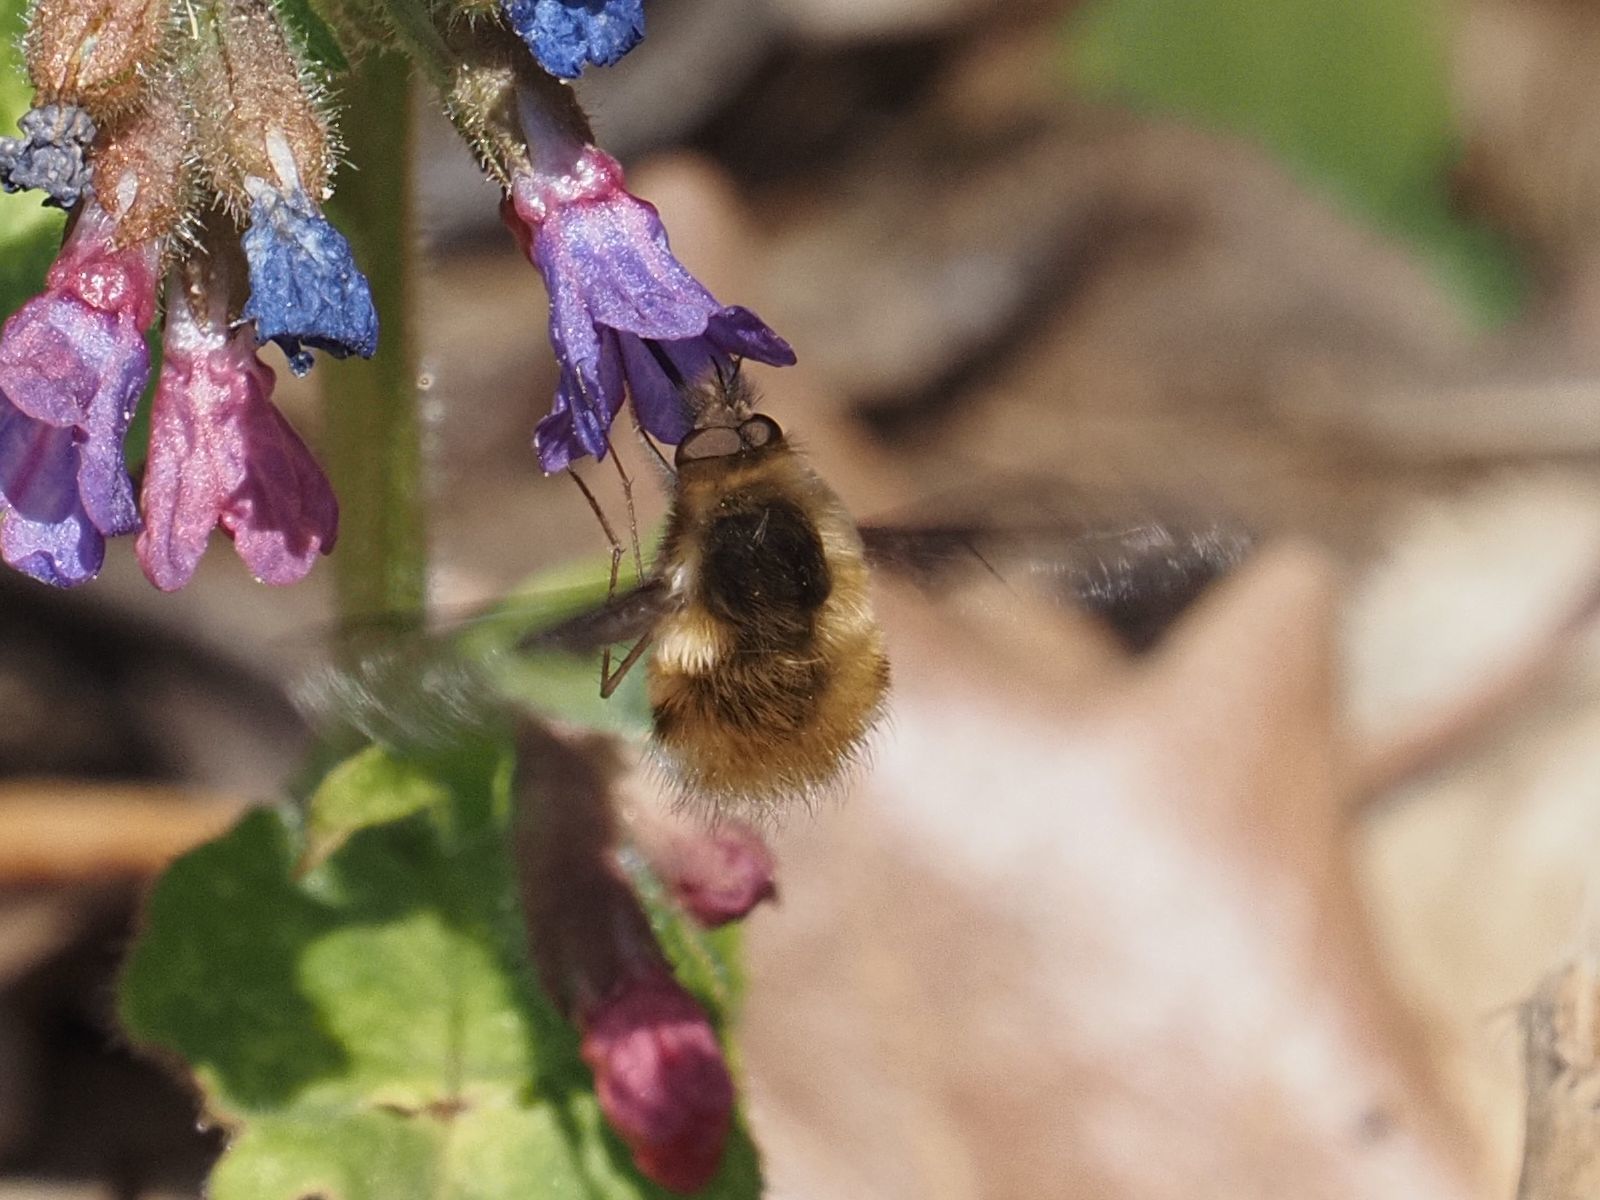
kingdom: Animalia
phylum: Arthropoda
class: Insecta
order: Diptera
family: Bombyliidae
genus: Bombylius
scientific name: Bombylius major
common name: Bee fly
